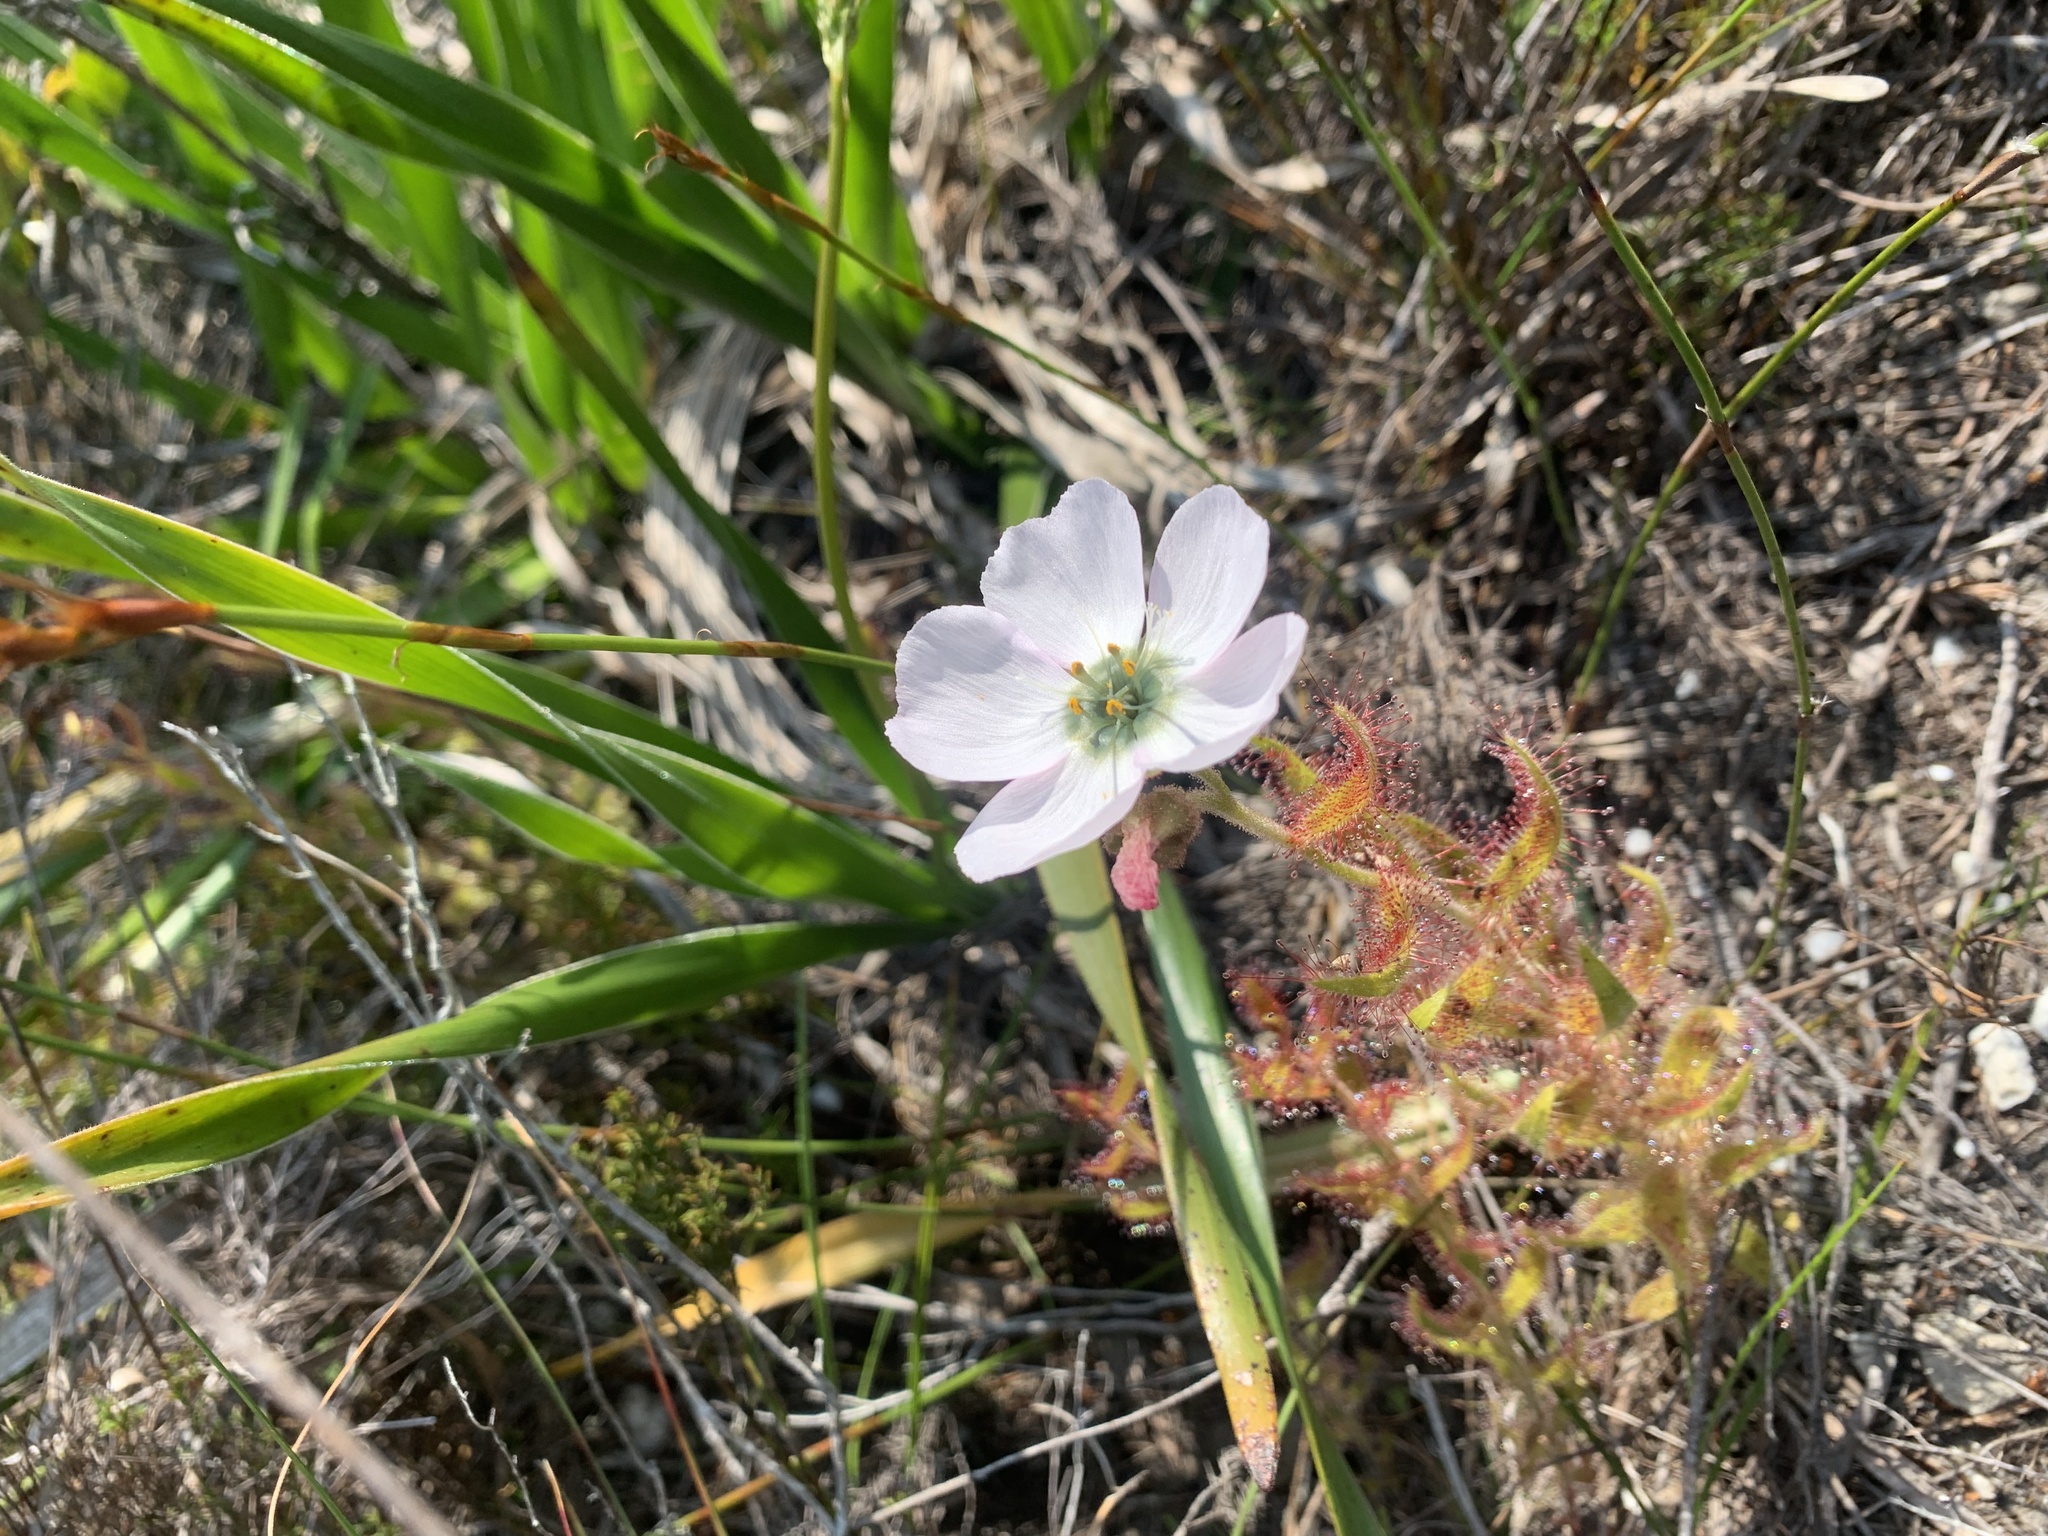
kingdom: Plantae
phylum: Tracheophyta
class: Magnoliopsida
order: Caryophyllales
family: Droseraceae
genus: Drosera
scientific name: Drosera cistiflora
